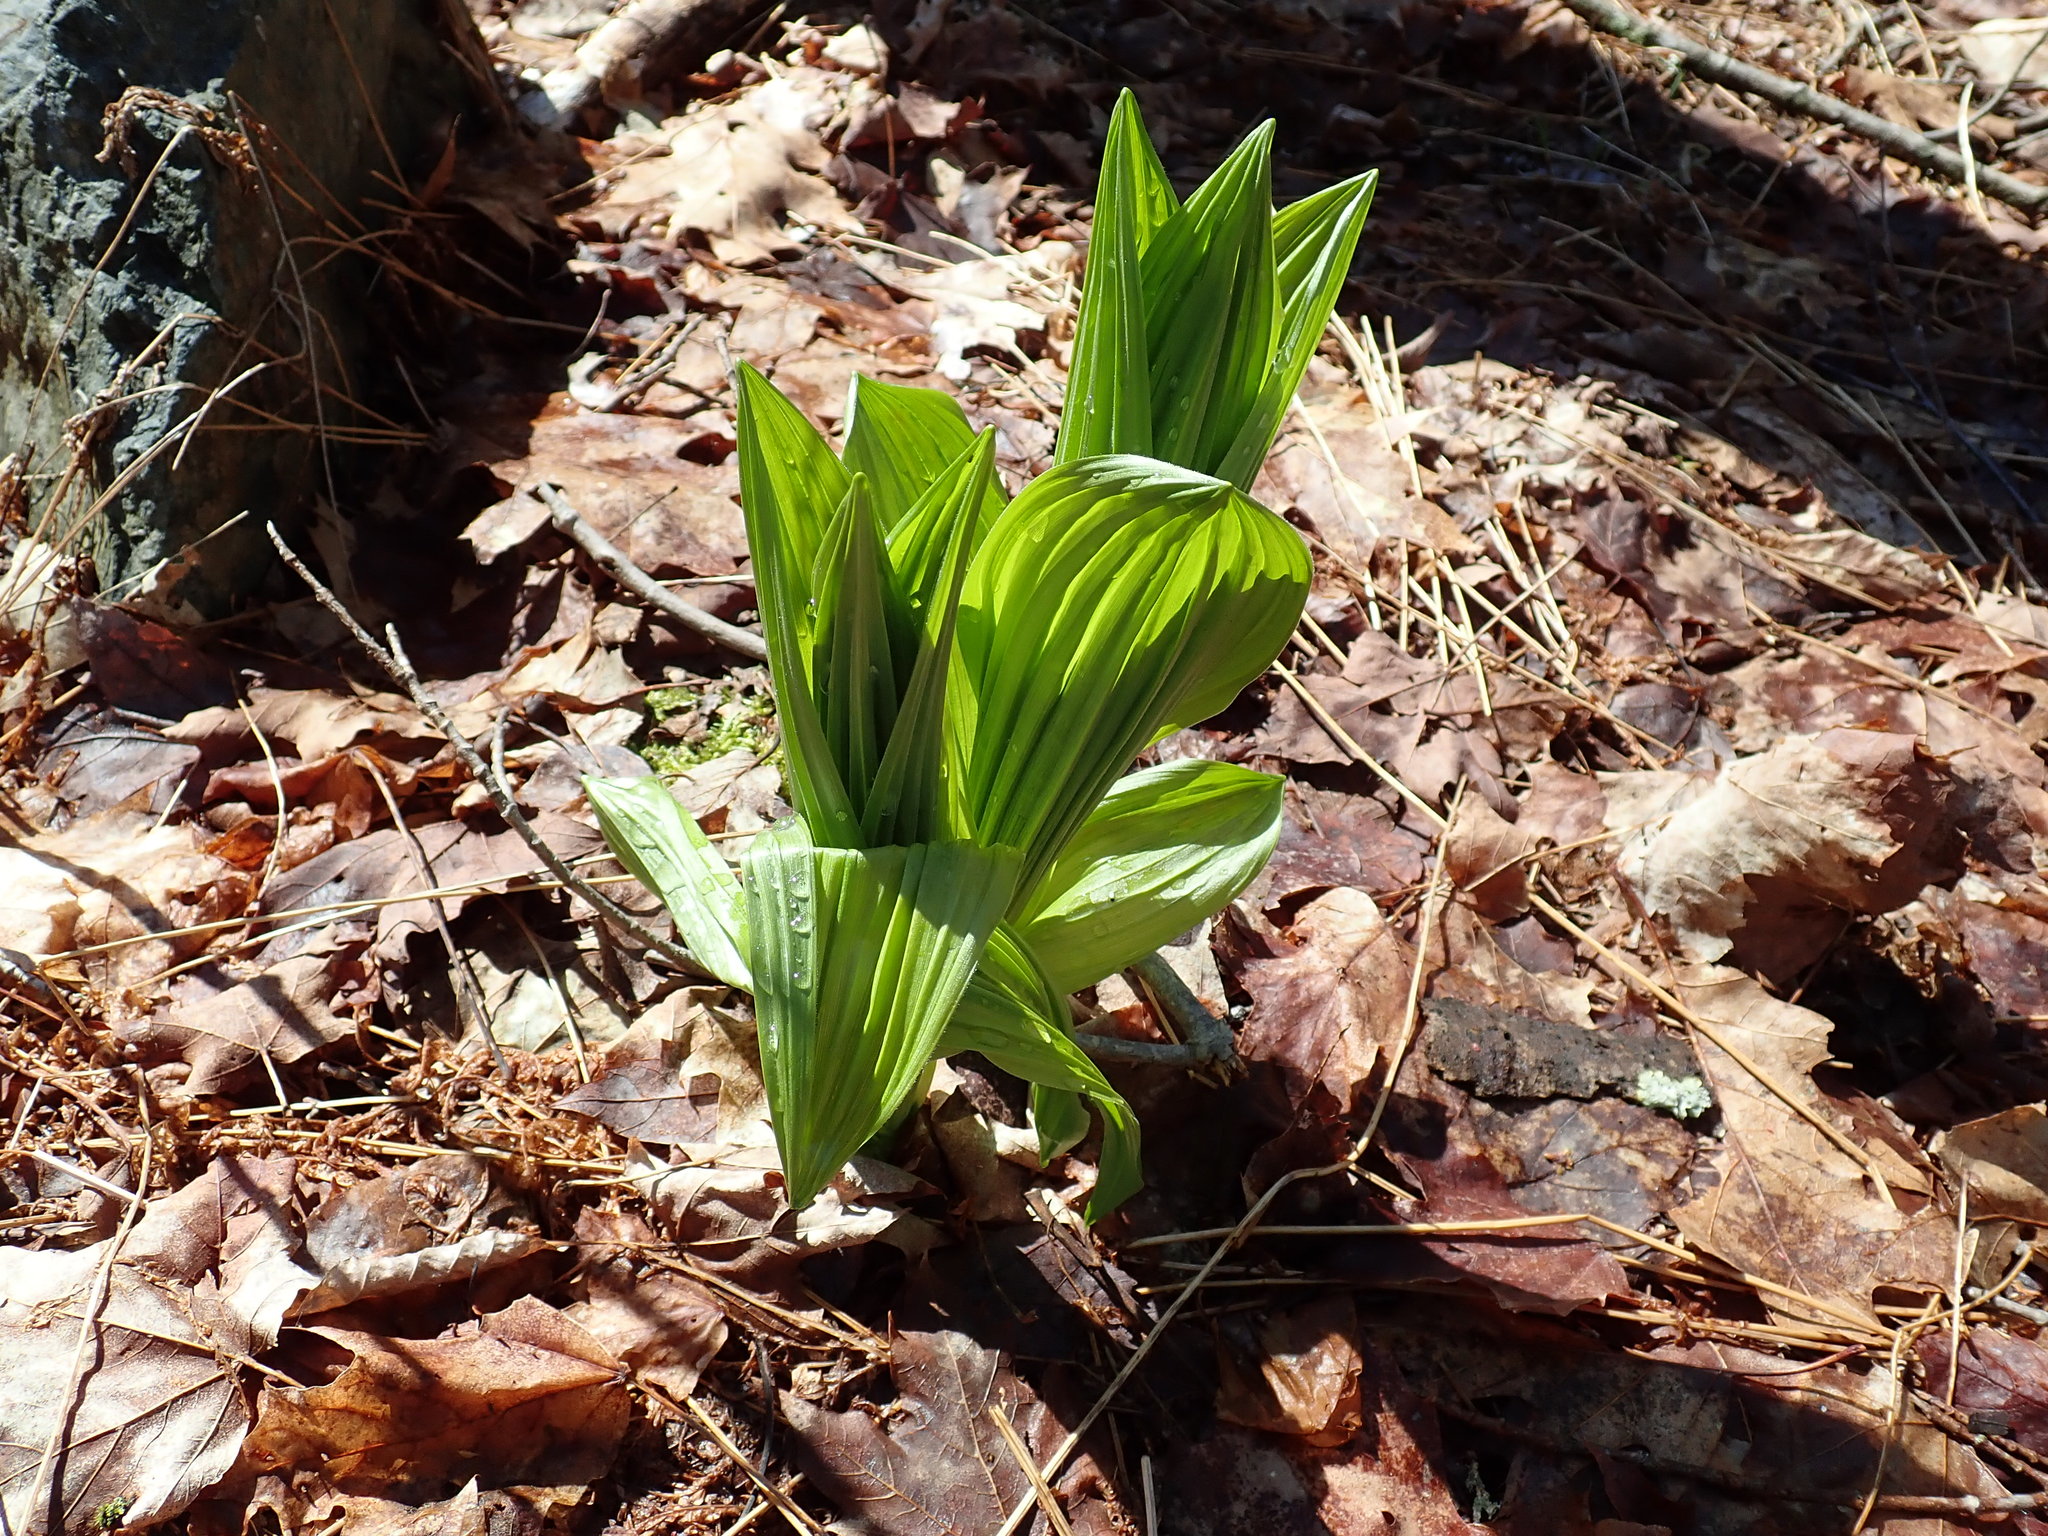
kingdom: Plantae
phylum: Tracheophyta
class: Liliopsida
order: Liliales
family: Melanthiaceae
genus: Veratrum
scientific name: Veratrum viride
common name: American false hellebore
